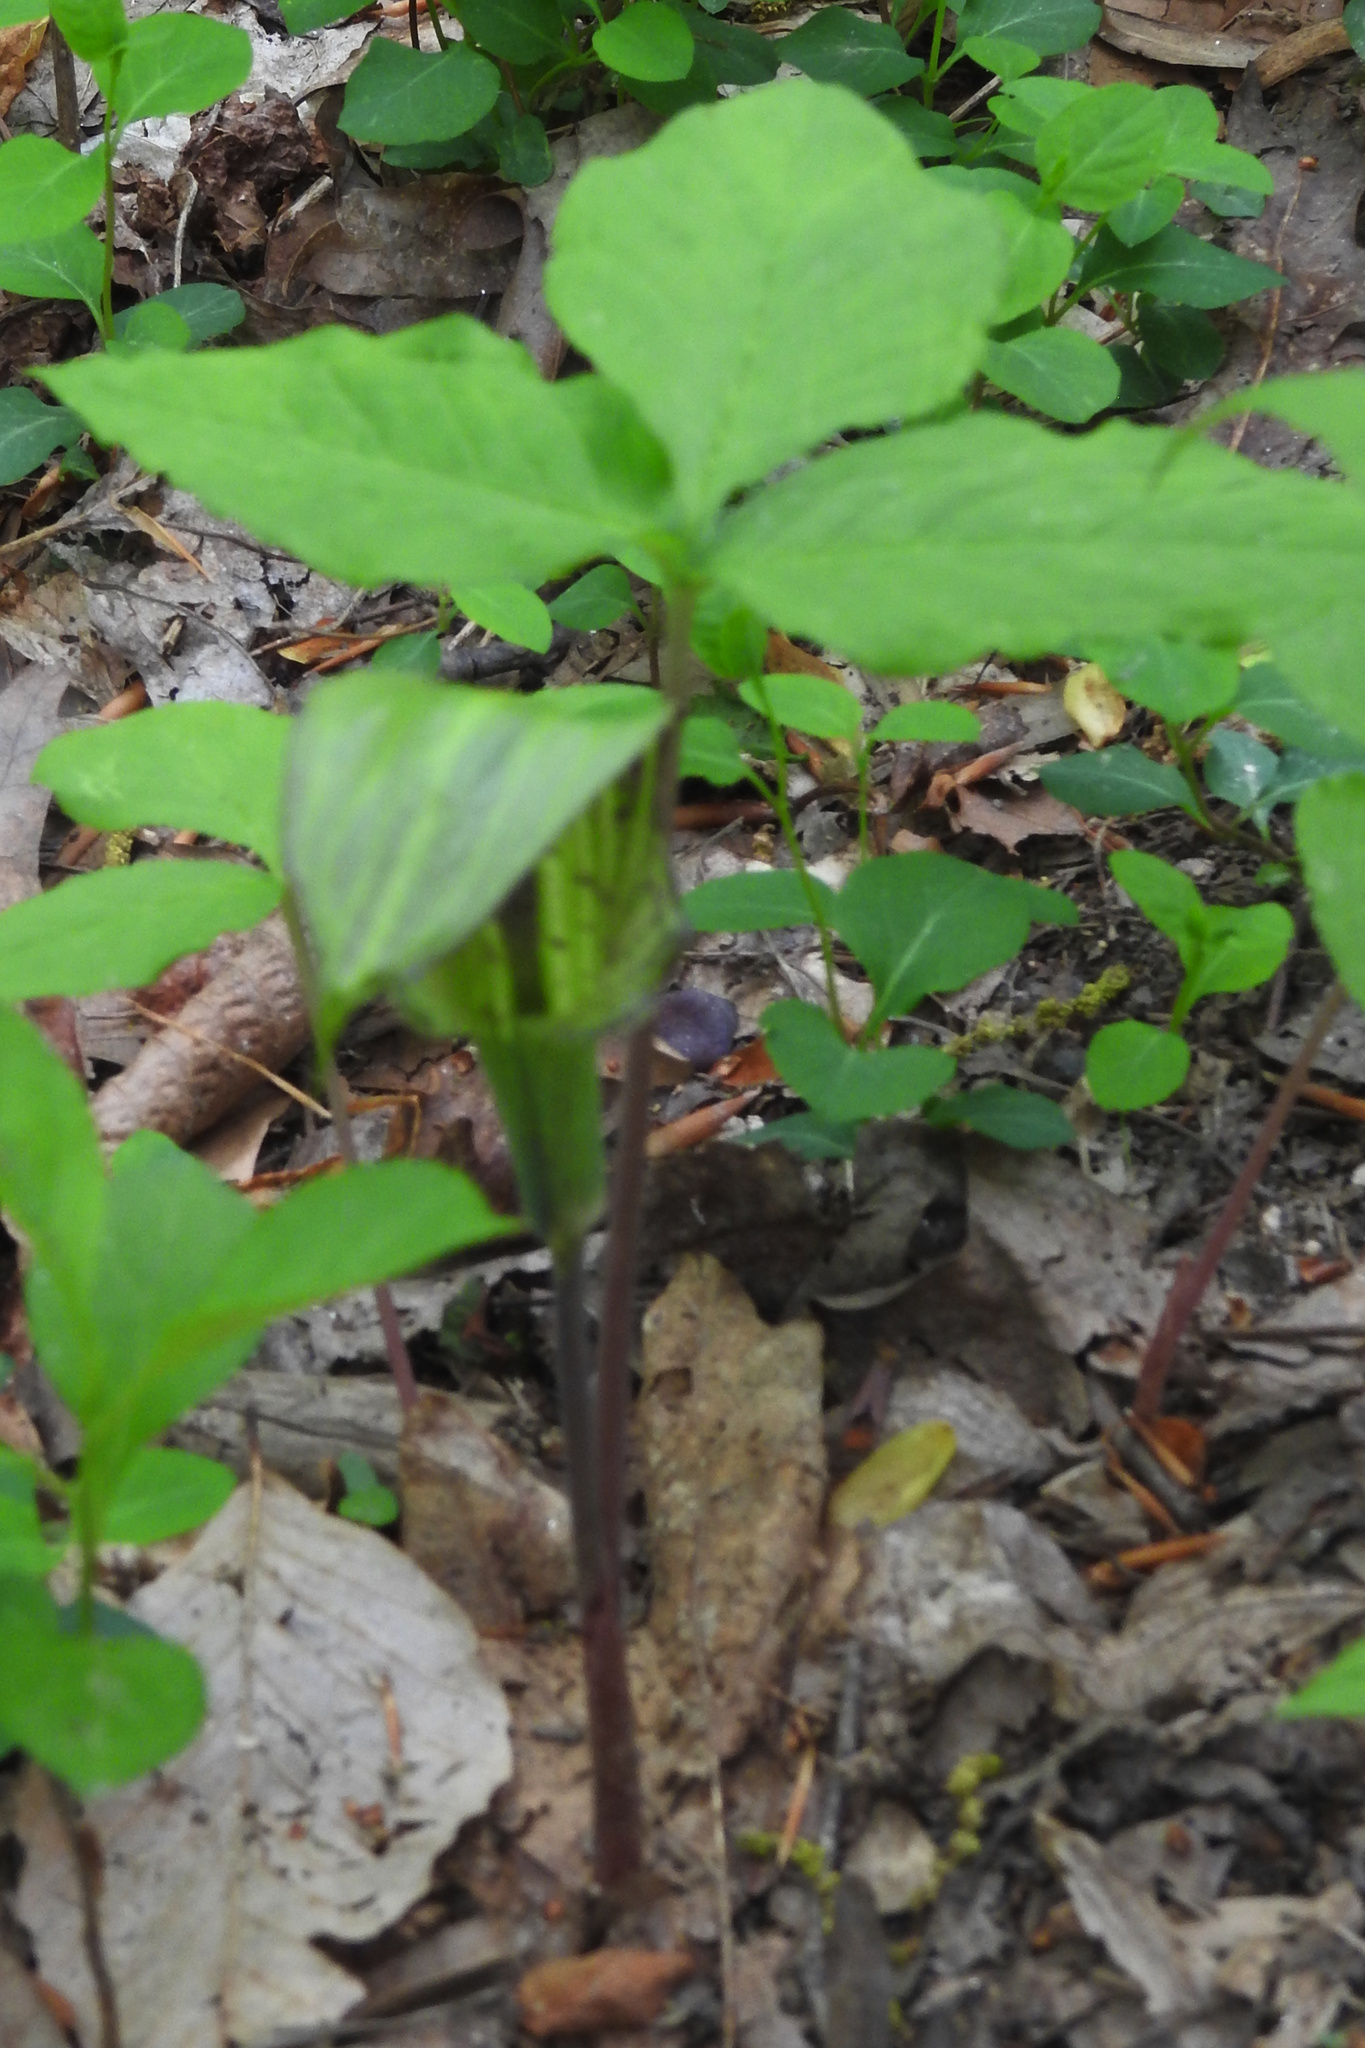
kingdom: Plantae
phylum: Tracheophyta
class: Liliopsida
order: Alismatales
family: Araceae
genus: Arisaema
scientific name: Arisaema triphyllum
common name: Jack-in-the-pulpit
